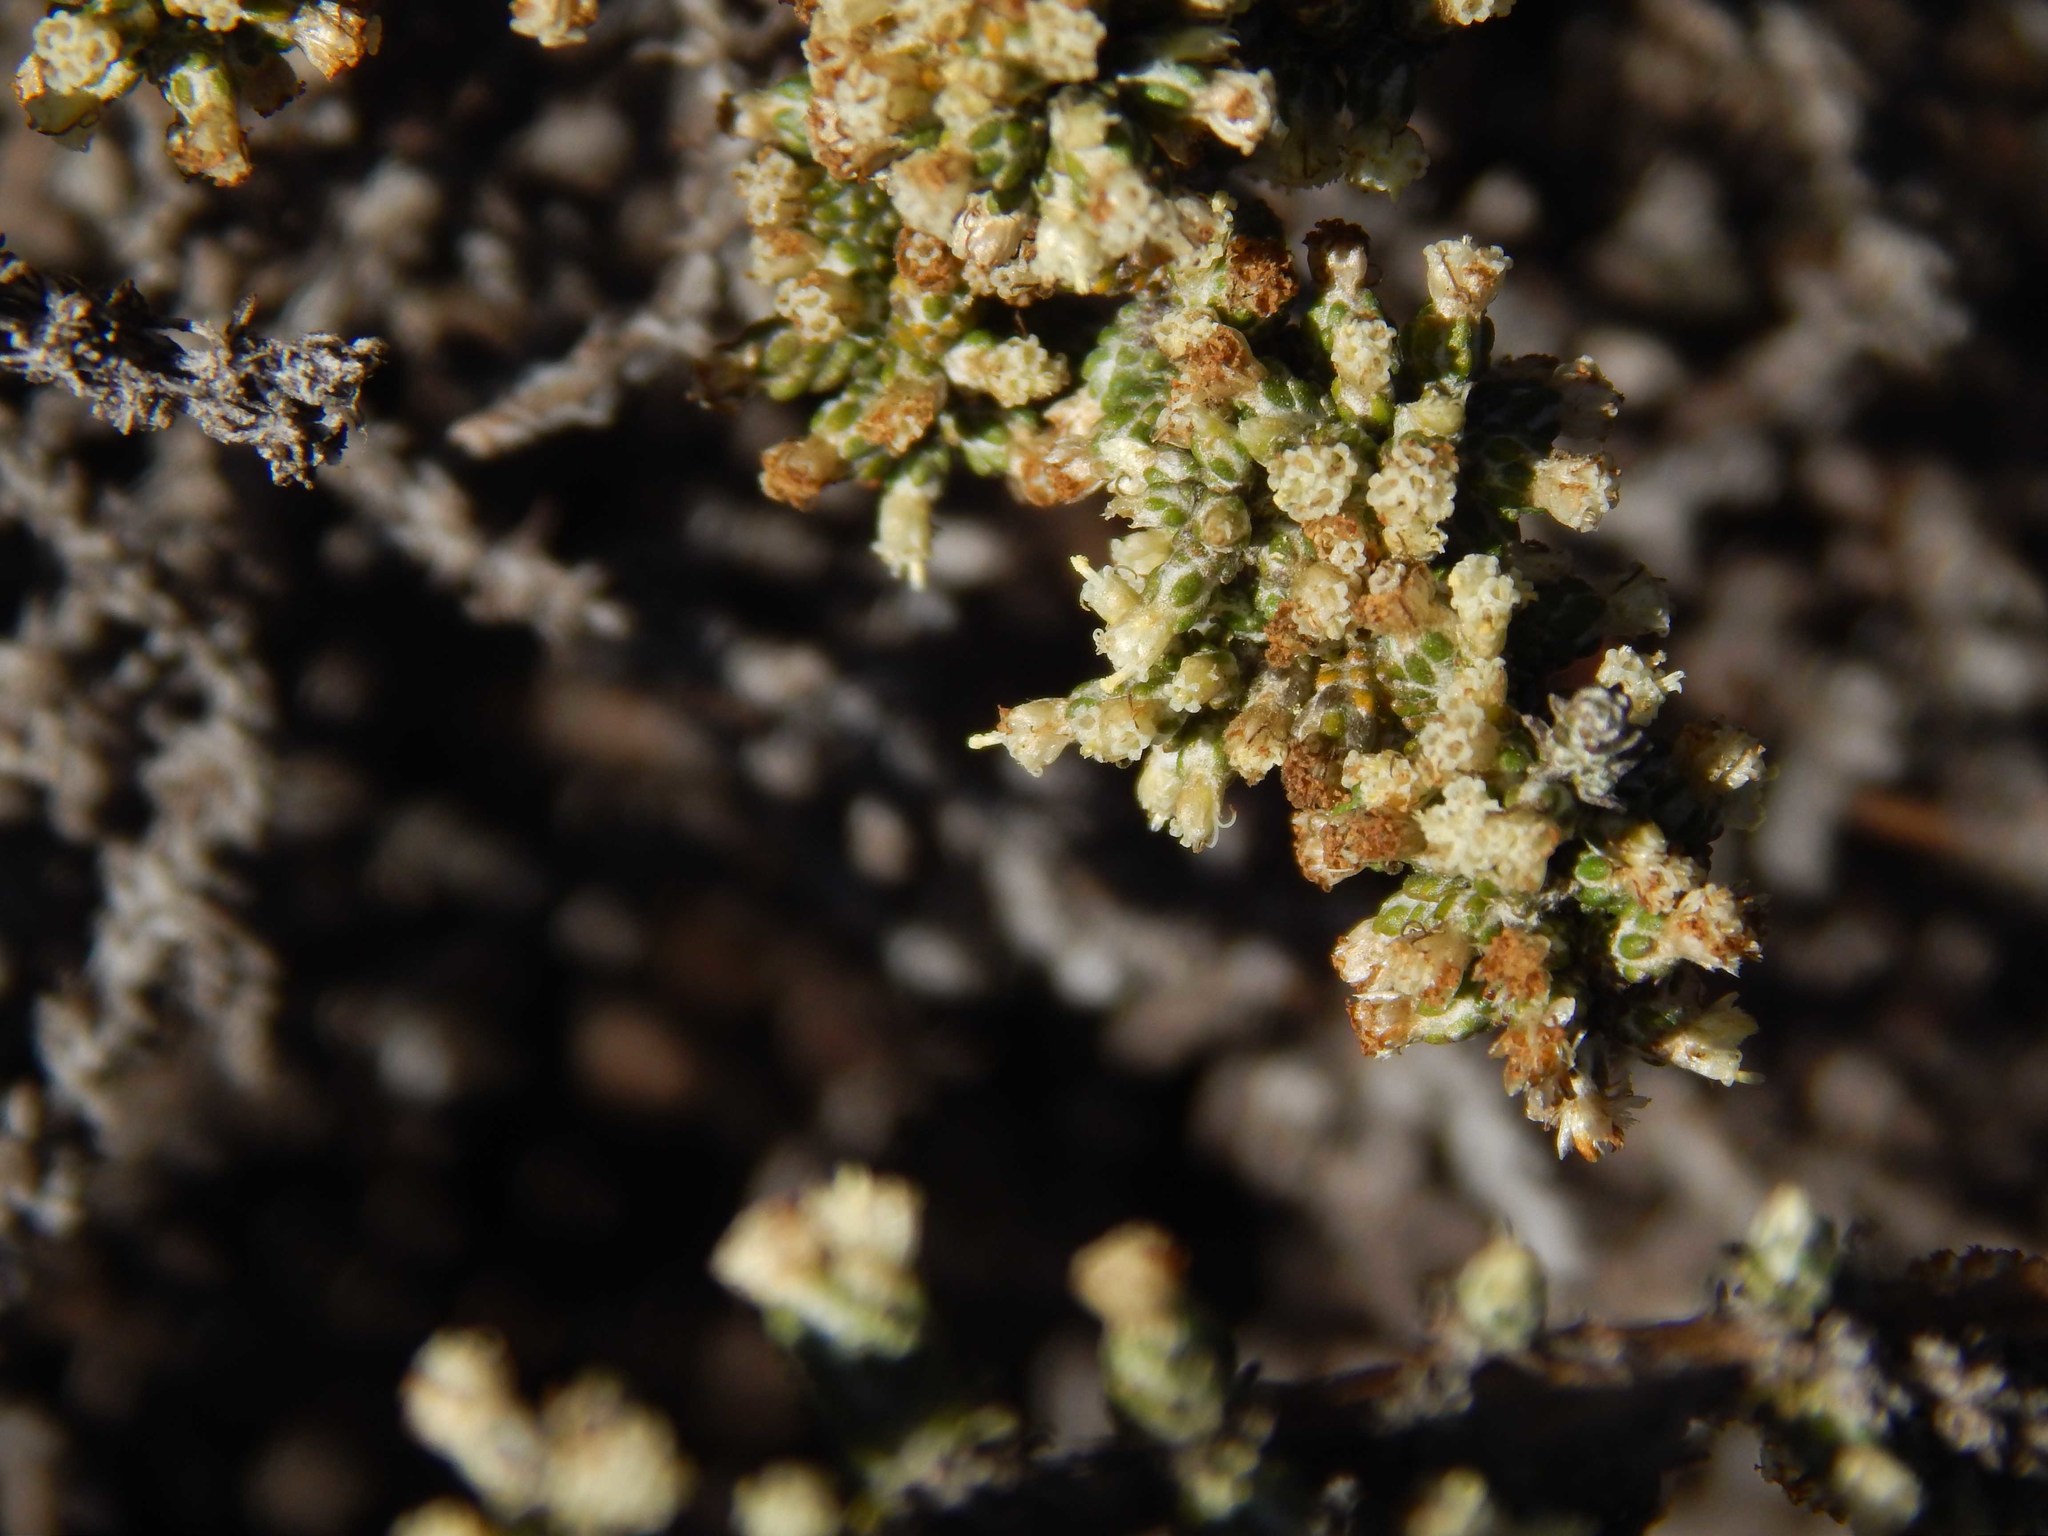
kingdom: Plantae
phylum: Tracheophyta
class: Magnoliopsida
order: Asterales
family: Asteraceae
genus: Ifloga
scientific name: Ifloga ambigua
